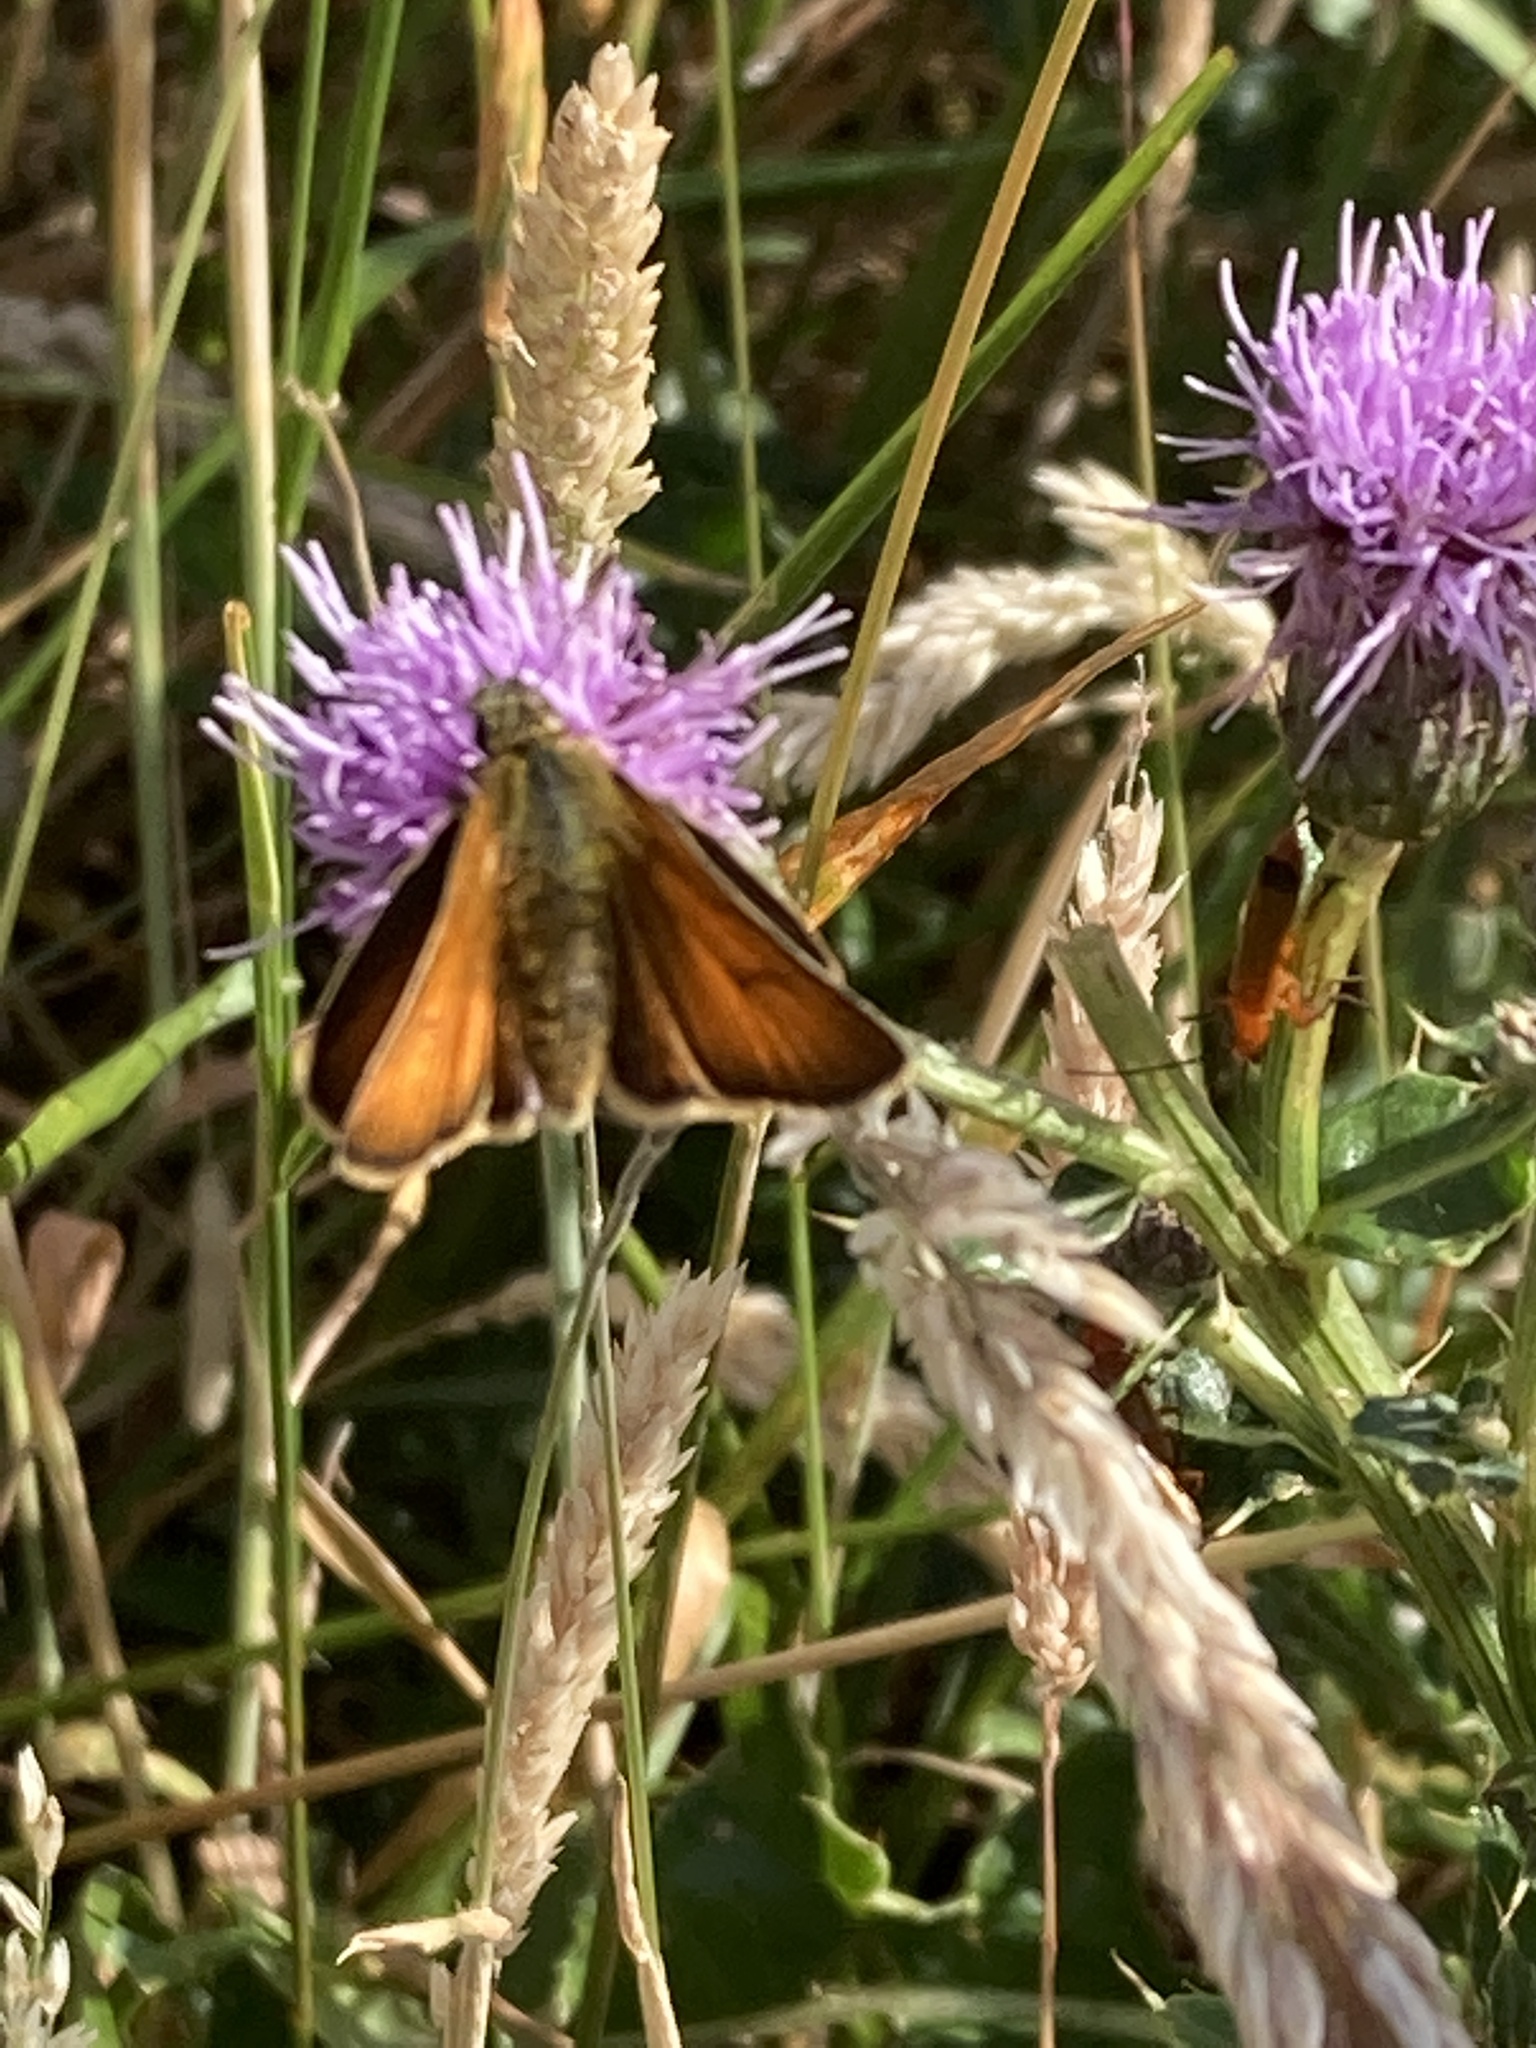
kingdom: Animalia
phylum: Arthropoda
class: Insecta
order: Lepidoptera
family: Hesperiidae
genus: Thymelicus
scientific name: Thymelicus sylvestris
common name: Small skipper
